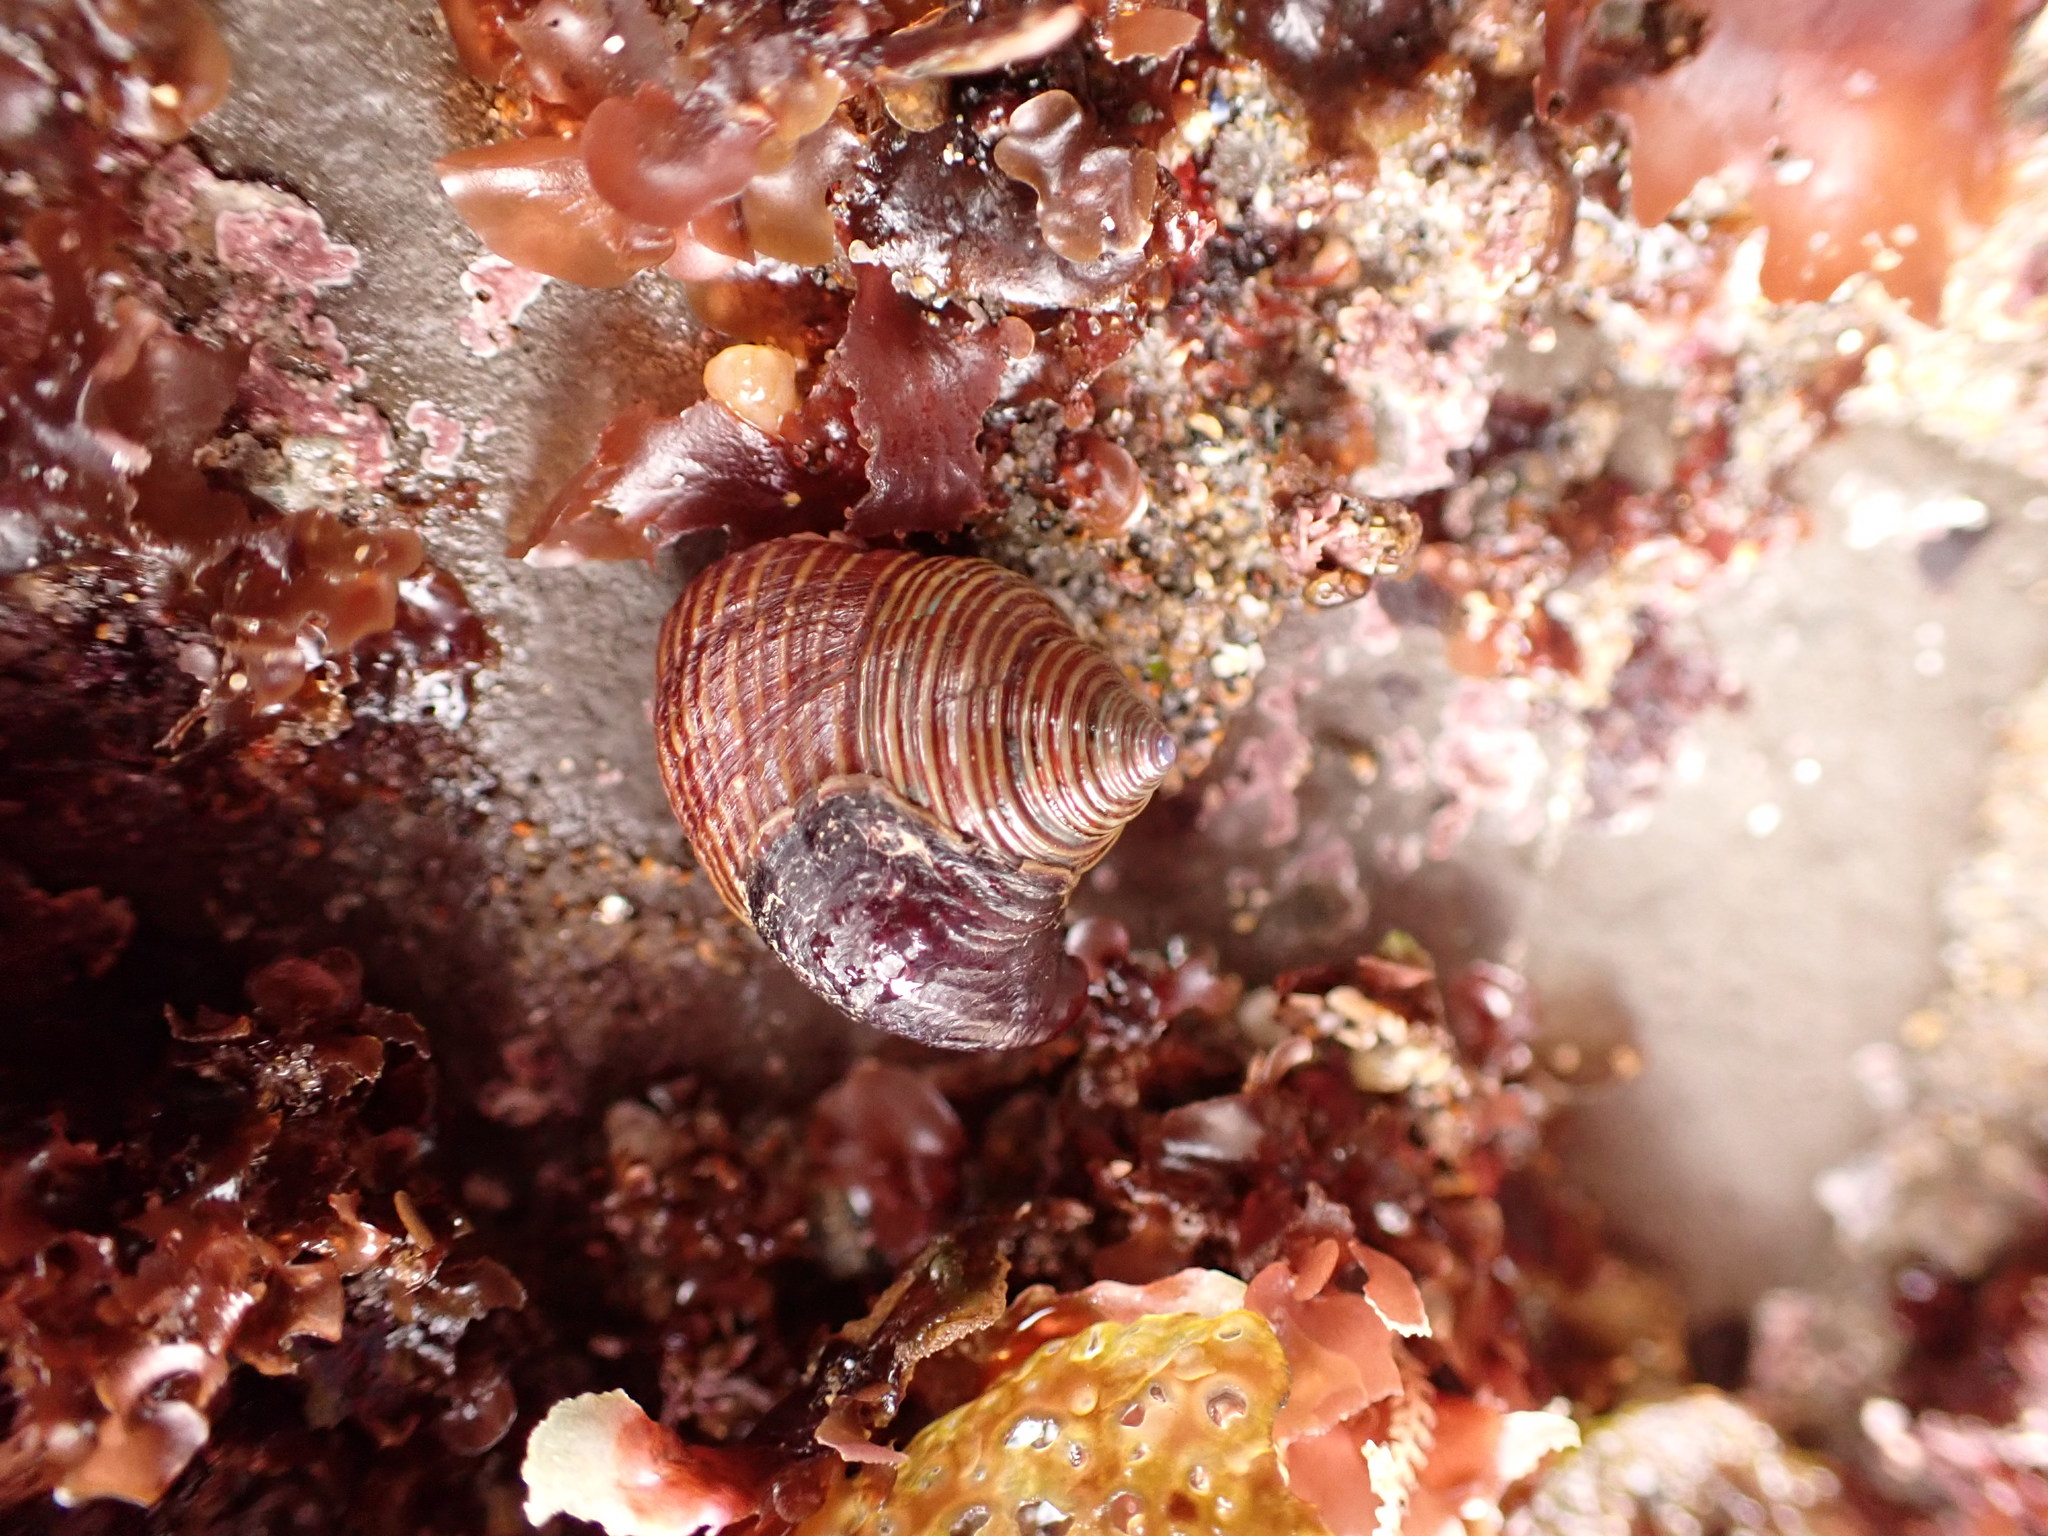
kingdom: Animalia
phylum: Mollusca
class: Gastropoda
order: Trochida
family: Calliostomatidae
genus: Calliostoma
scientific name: Calliostoma ligatum
